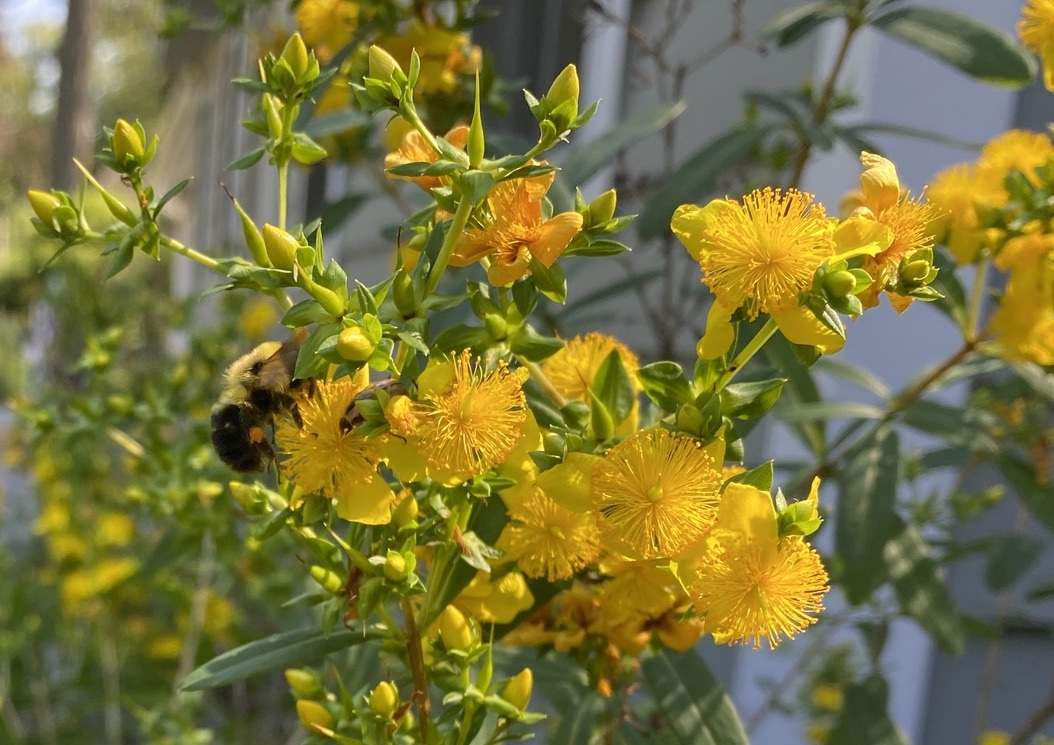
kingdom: Animalia
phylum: Arthropoda
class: Insecta
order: Hymenoptera
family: Apidae
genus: Bombus
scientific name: Bombus bimaculatus
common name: Two-spotted bumble bee
